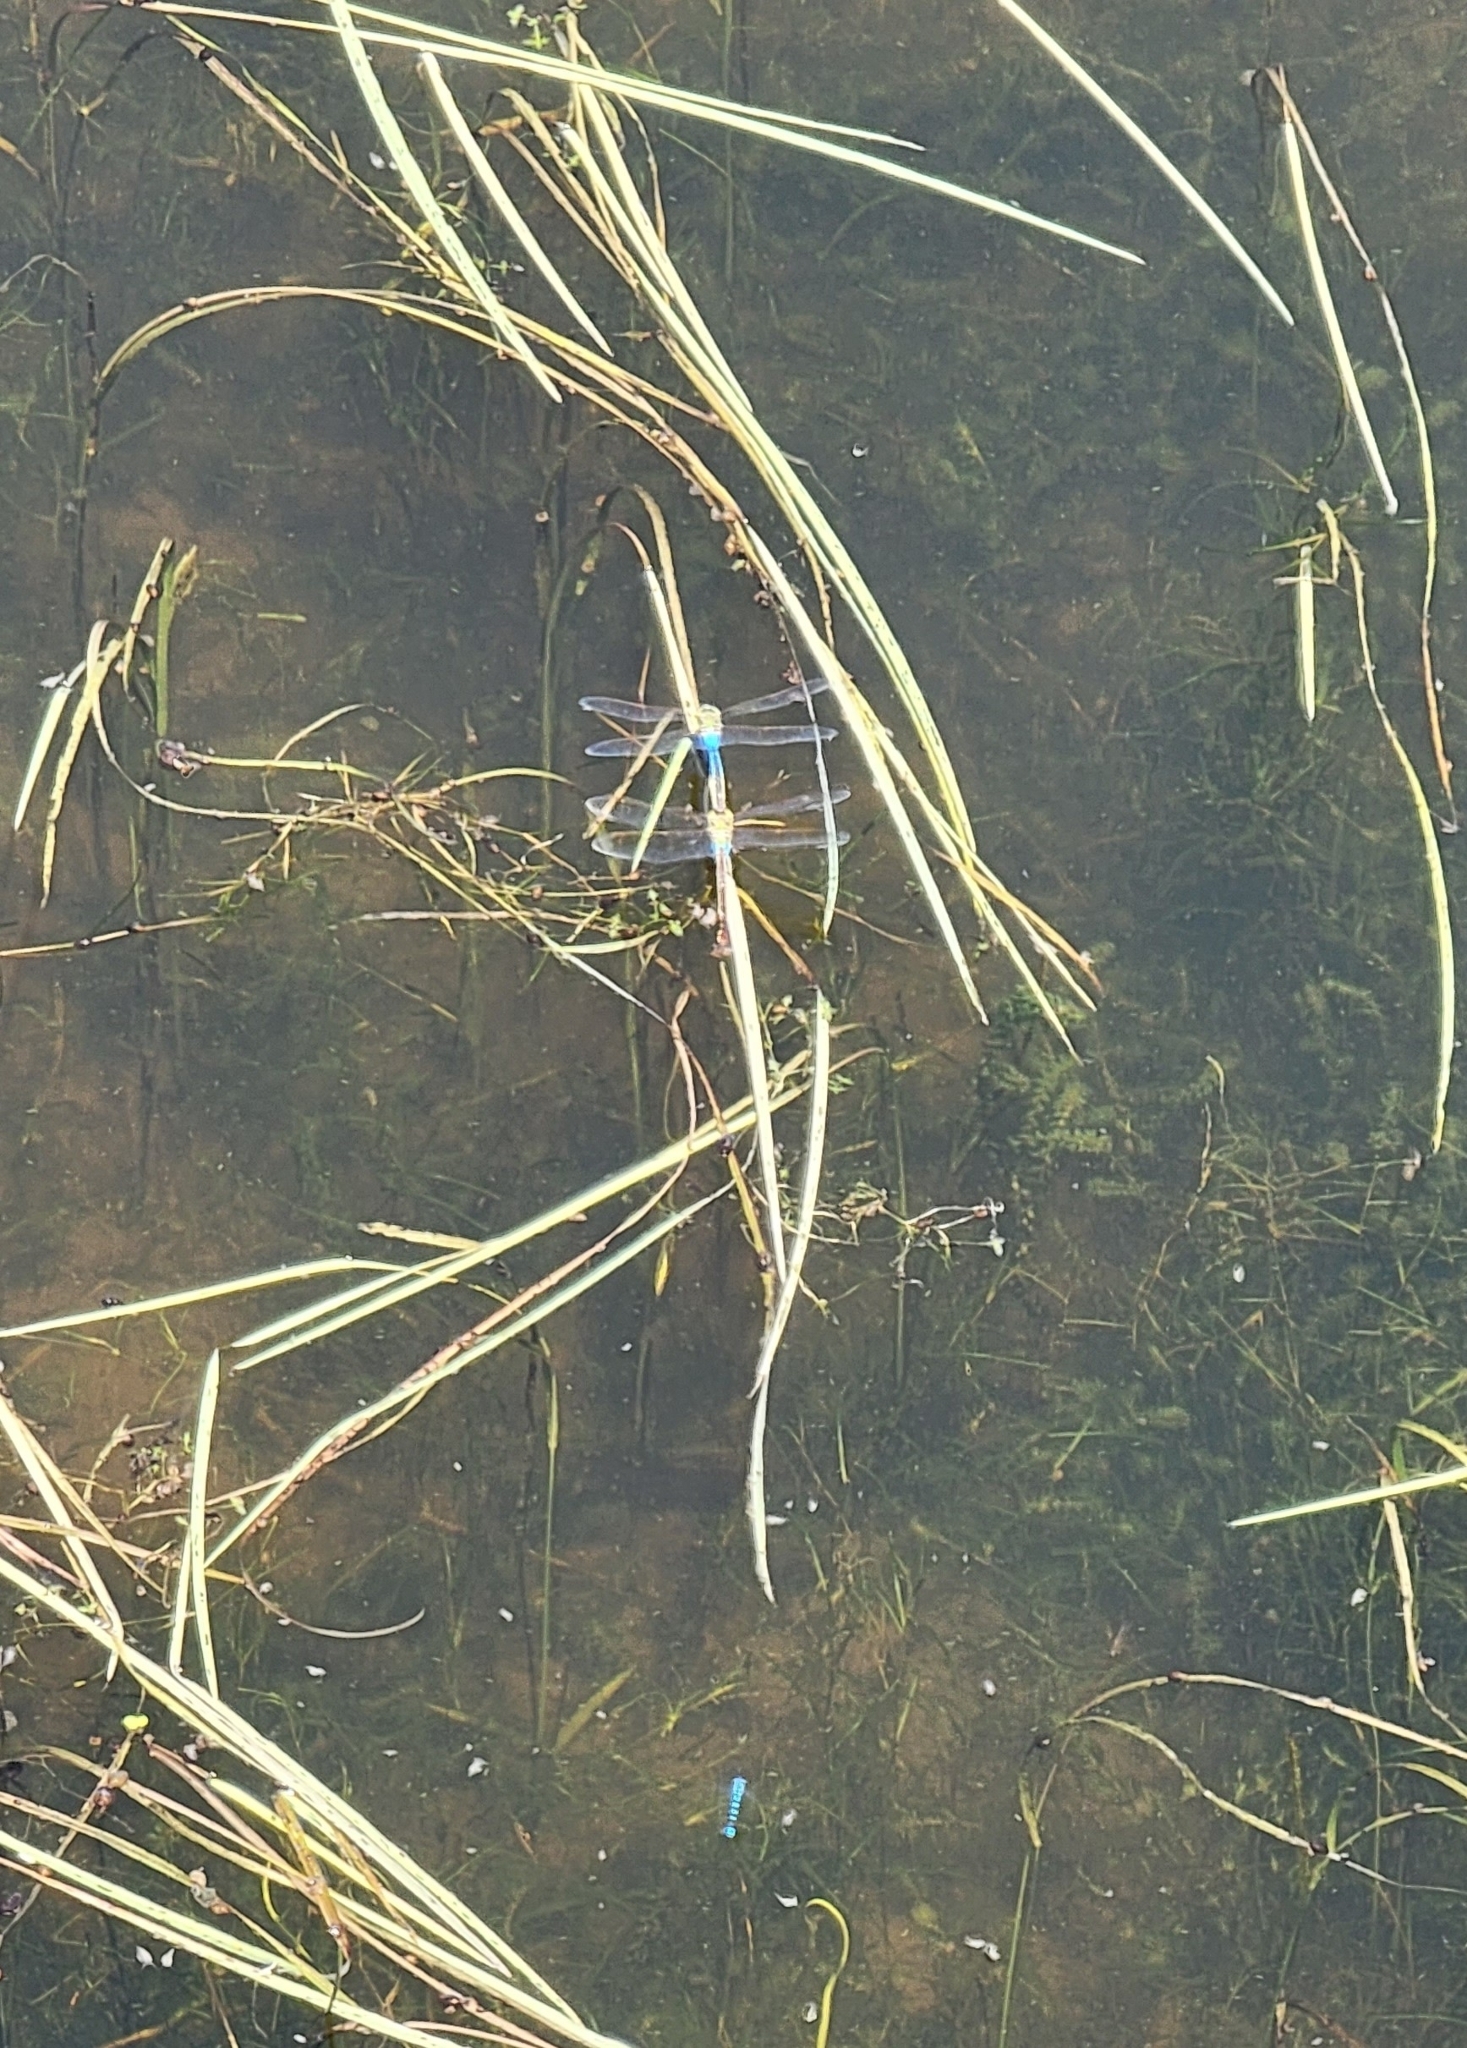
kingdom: Animalia
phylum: Arthropoda
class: Insecta
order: Odonata
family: Aeshnidae
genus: Anax
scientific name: Anax junius
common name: Common green darner
